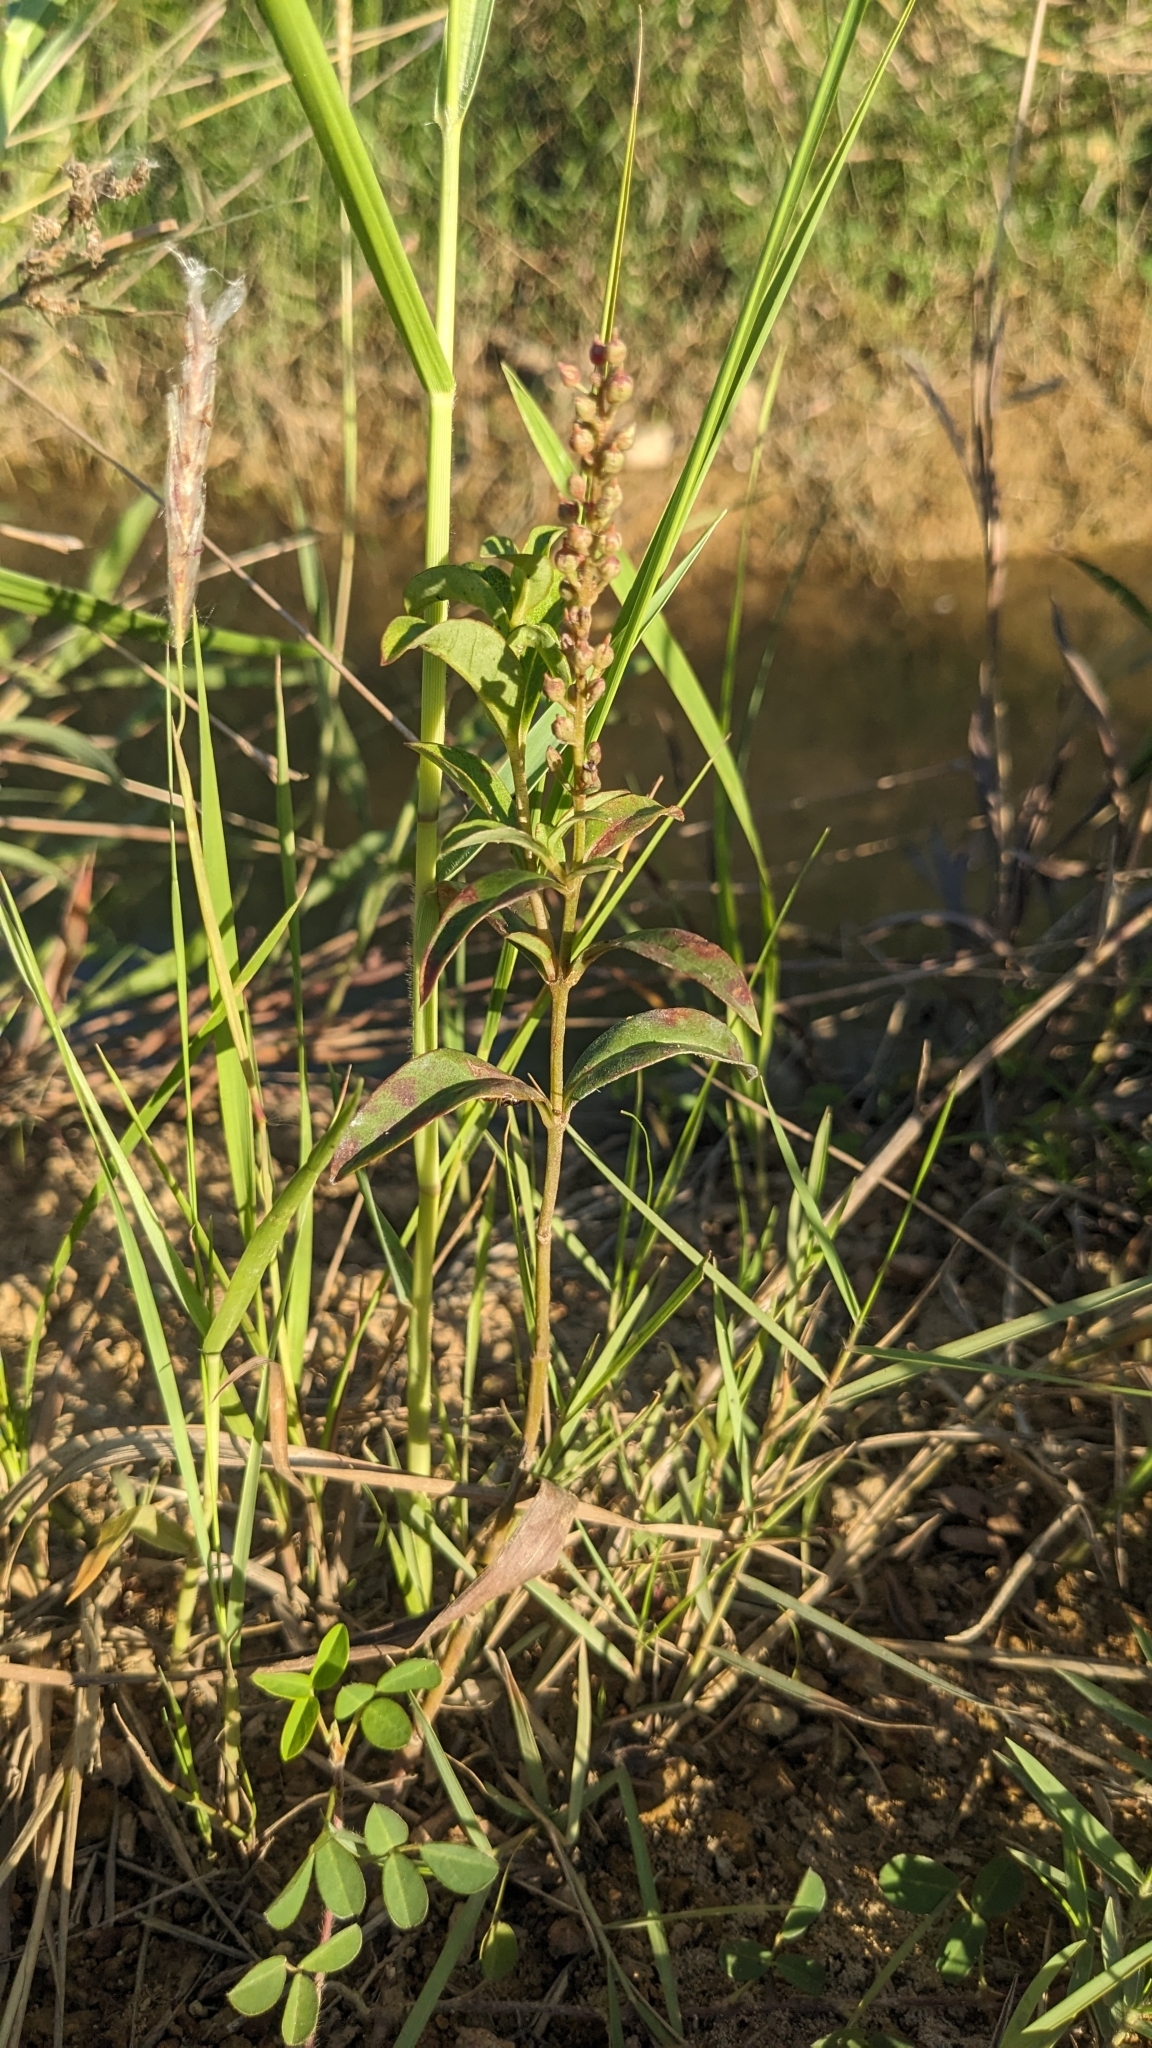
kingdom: Plantae
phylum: Tracheophyta
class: Magnoliopsida
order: Ericales
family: Primulaceae
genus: Lysimachia
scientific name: Lysimachia fortunei
